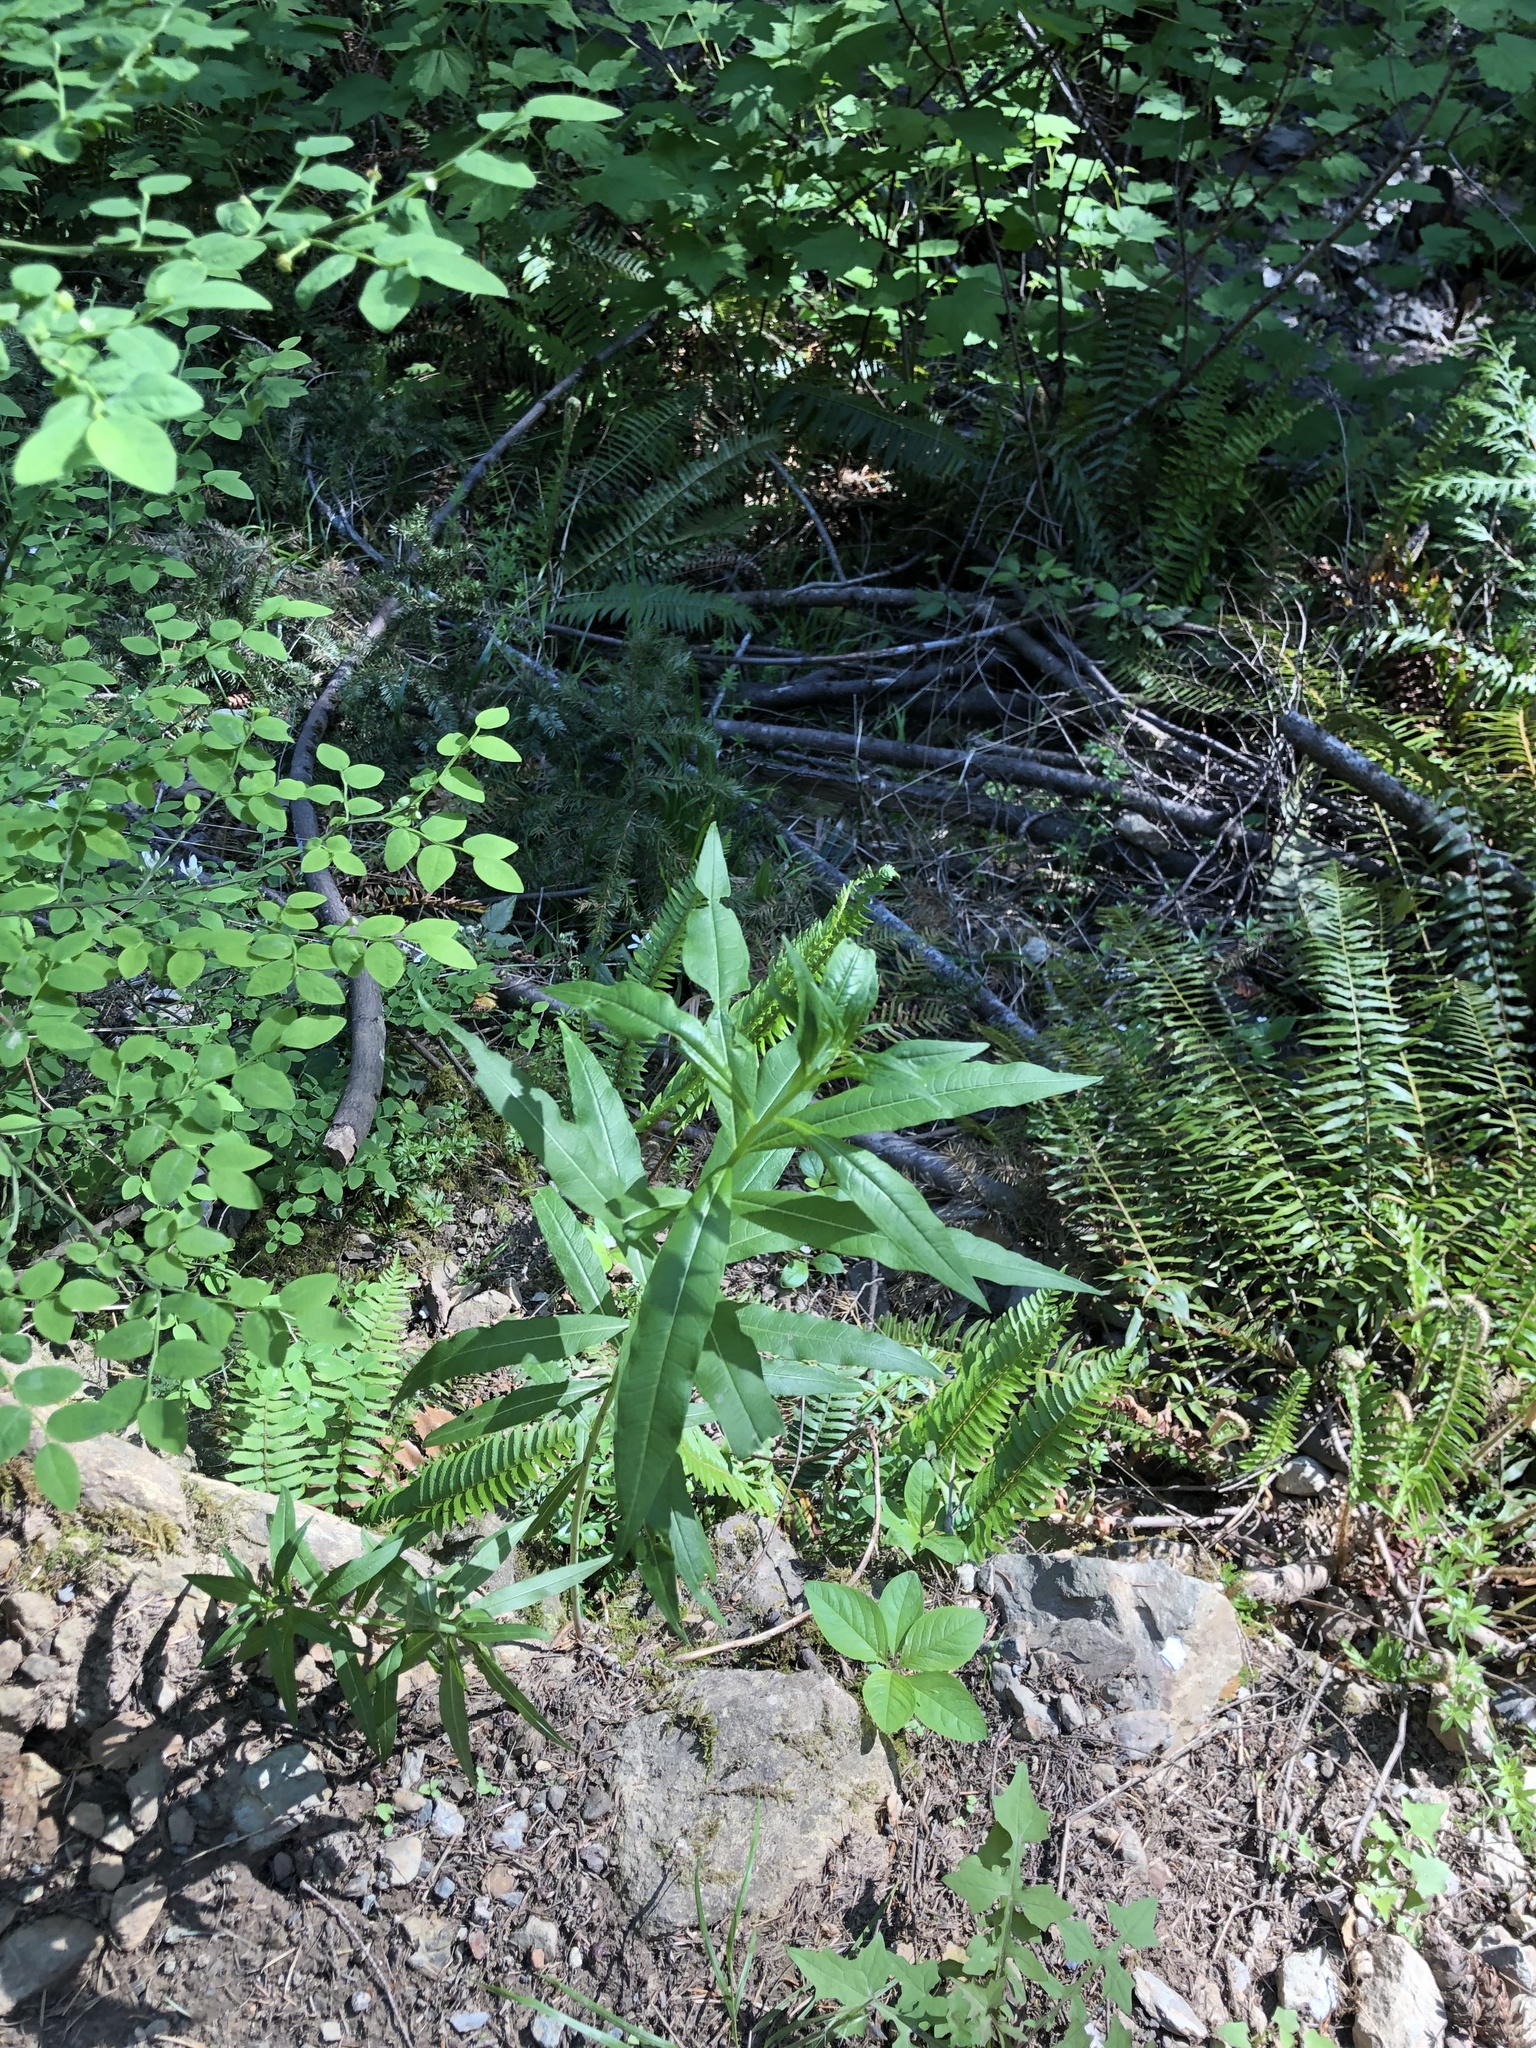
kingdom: Plantae
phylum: Tracheophyta
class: Magnoliopsida
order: Myrtales
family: Onagraceae
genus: Chamaenerion
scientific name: Chamaenerion angustifolium
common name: Fireweed
